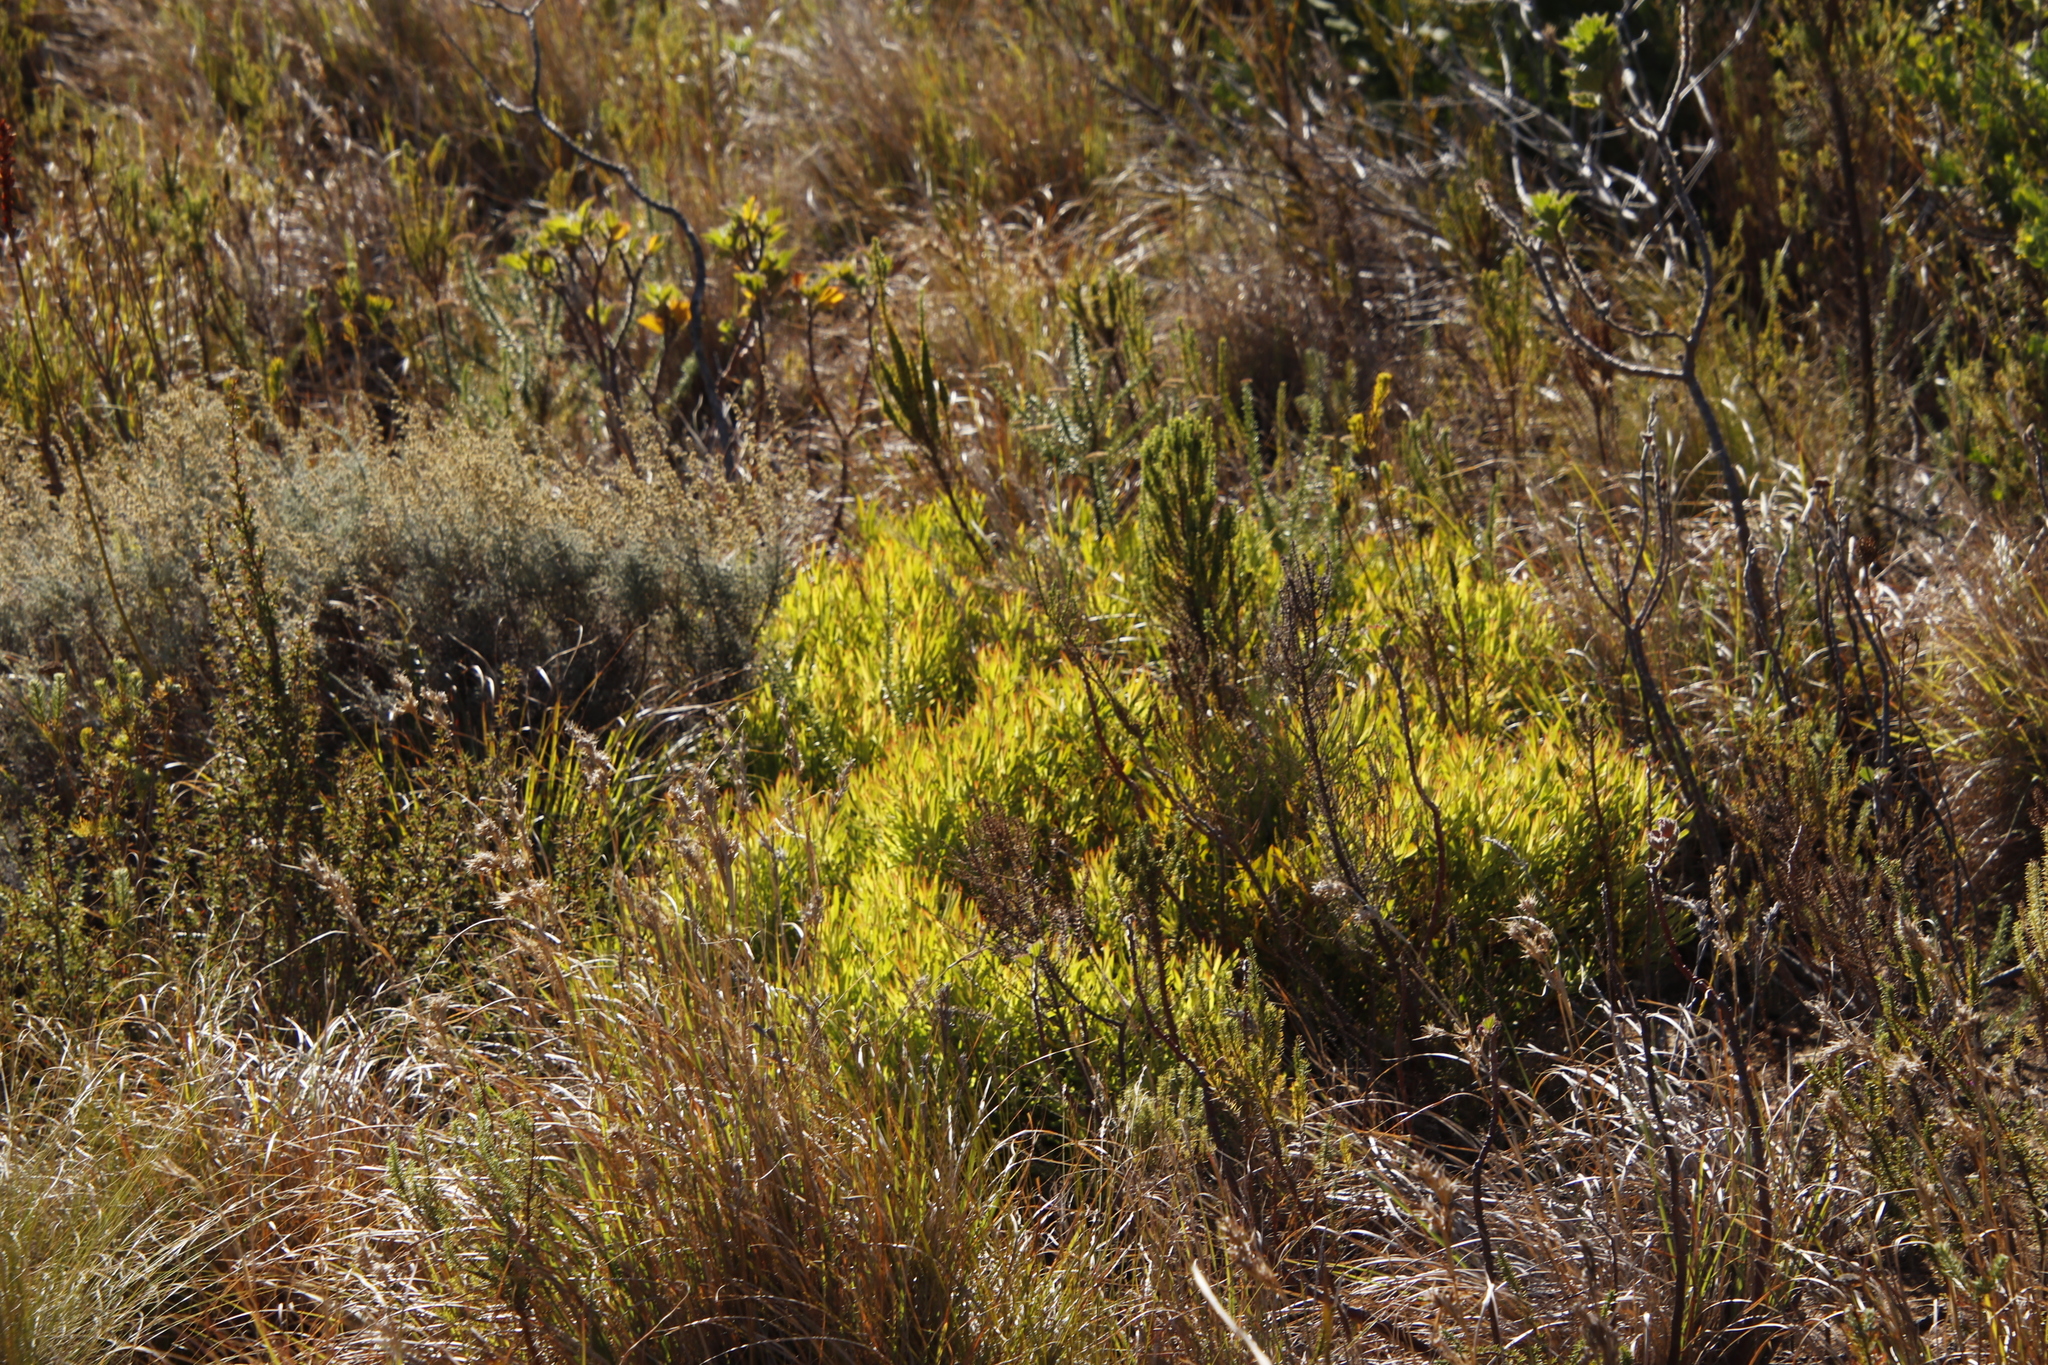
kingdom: Plantae
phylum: Tracheophyta
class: Magnoliopsida
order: Proteales
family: Proteaceae
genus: Leucadendron
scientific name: Leucadendron salignum
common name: Common sunshine conebush
